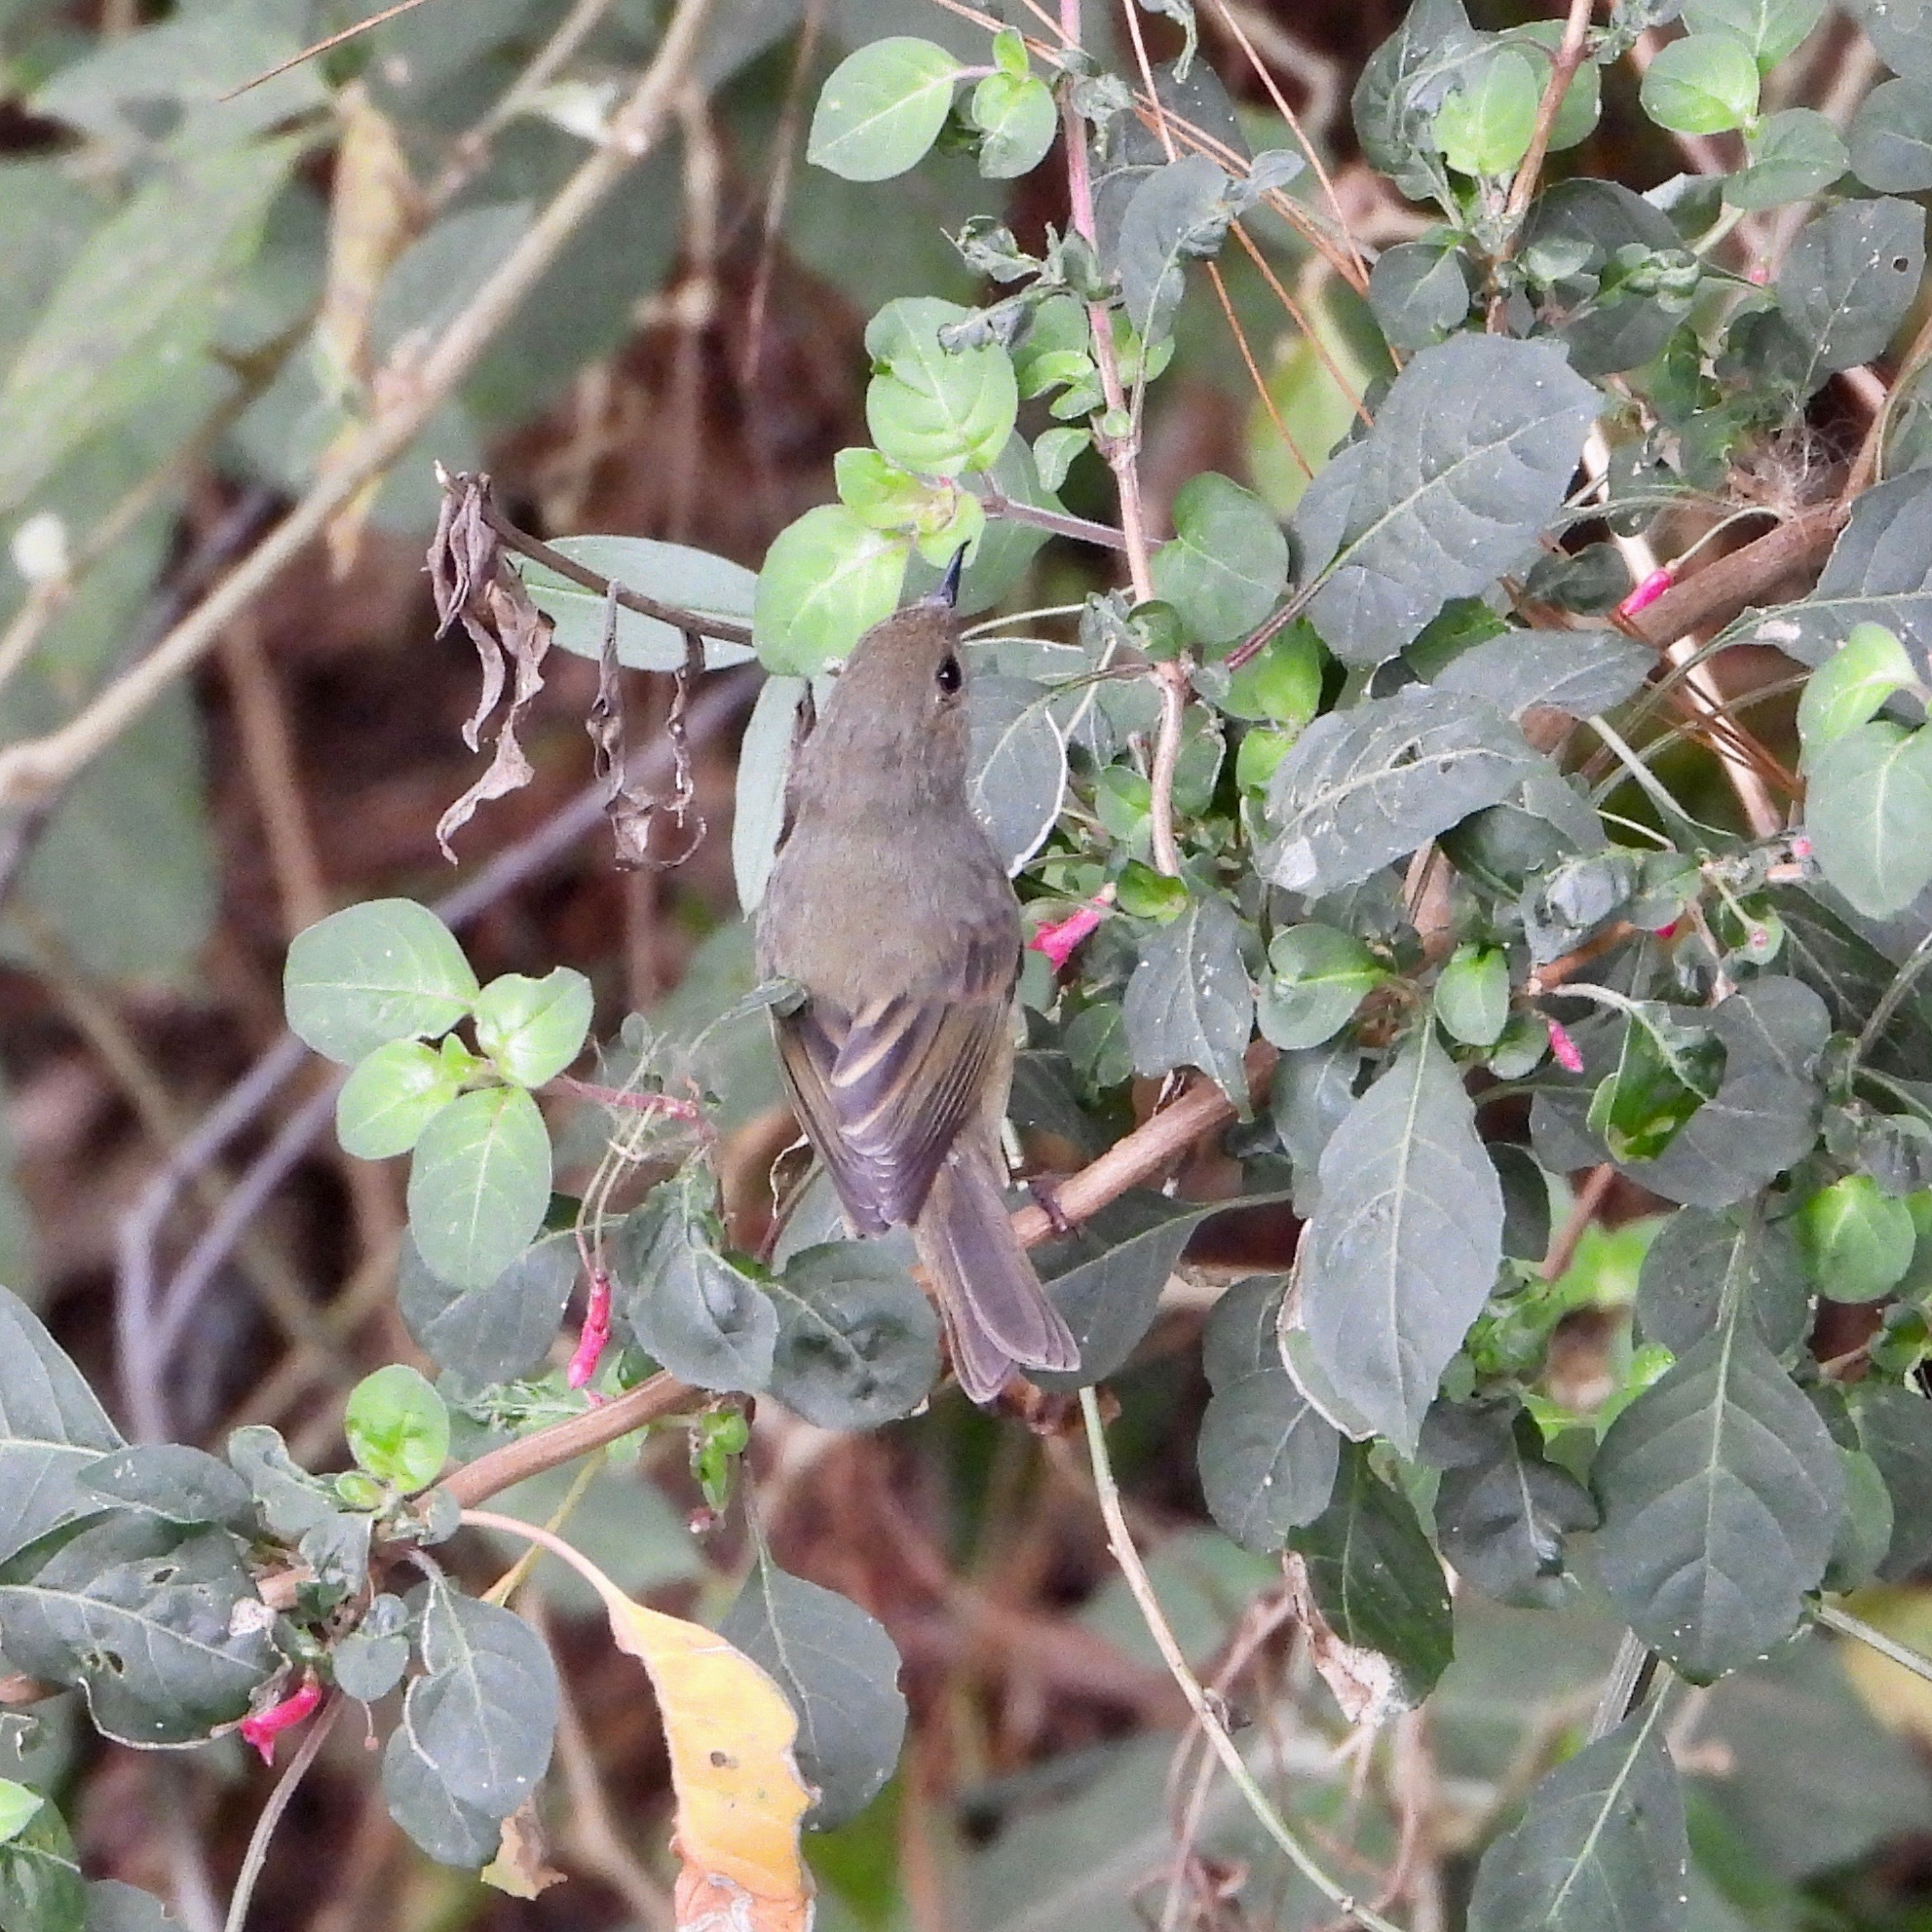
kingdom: Animalia
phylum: Chordata
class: Aves
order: Passeriformes
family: Thraupidae
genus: Diglossa
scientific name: Diglossa baritula
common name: Cinnamon-bellied flowerpiercer
